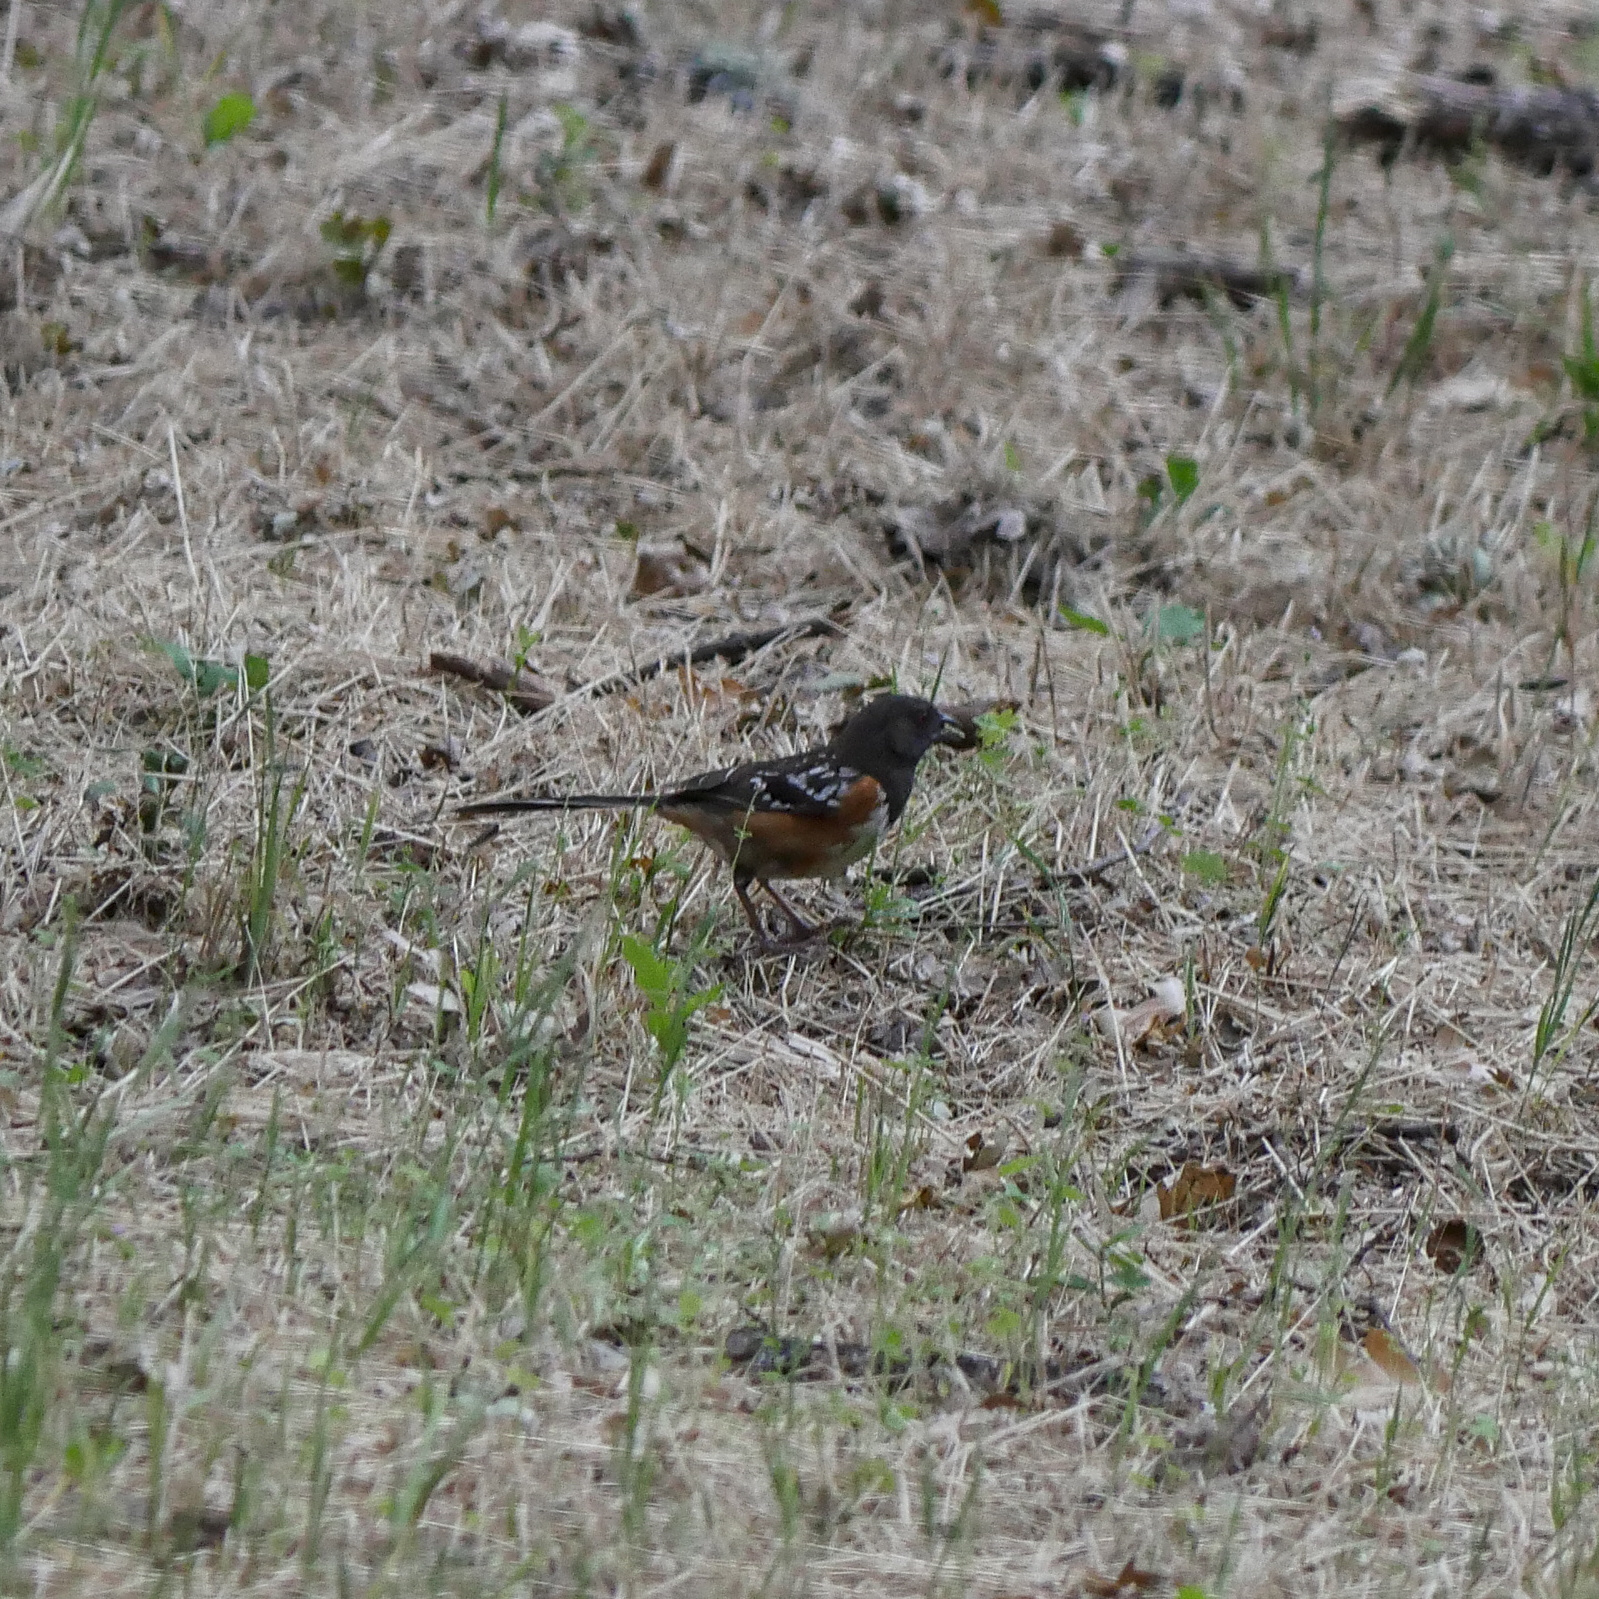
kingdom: Animalia
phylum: Chordata
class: Aves
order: Passeriformes
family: Passerellidae
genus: Pipilo
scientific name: Pipilo maculatus
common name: Spotted towhee
